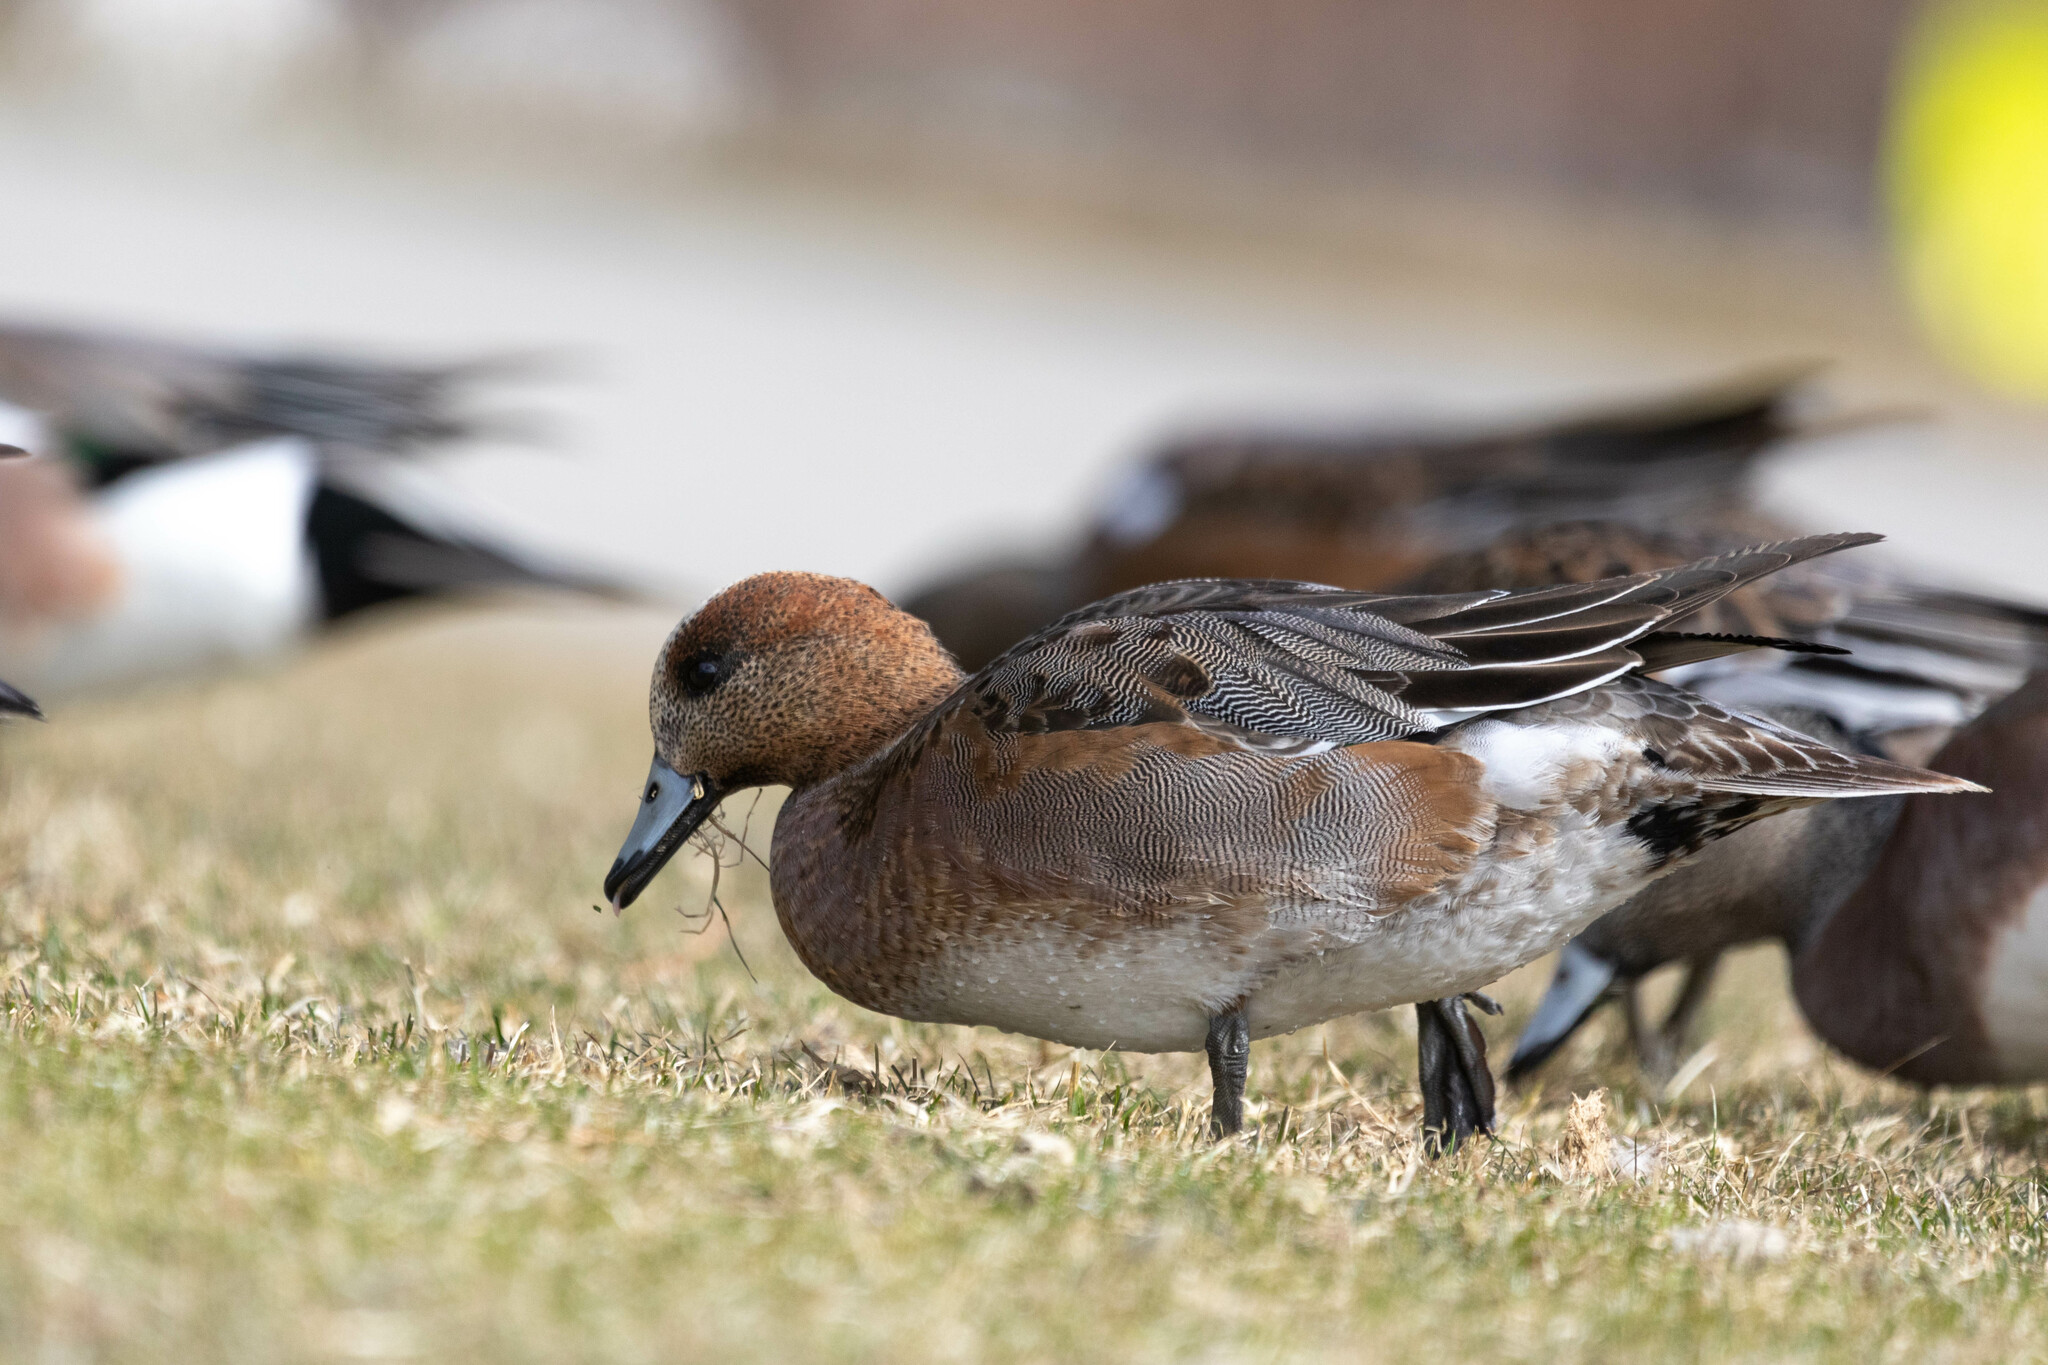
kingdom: Animalia
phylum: Chordata
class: Aves
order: Anseriformes
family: Anatidae
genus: Mareca
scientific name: Mareca
